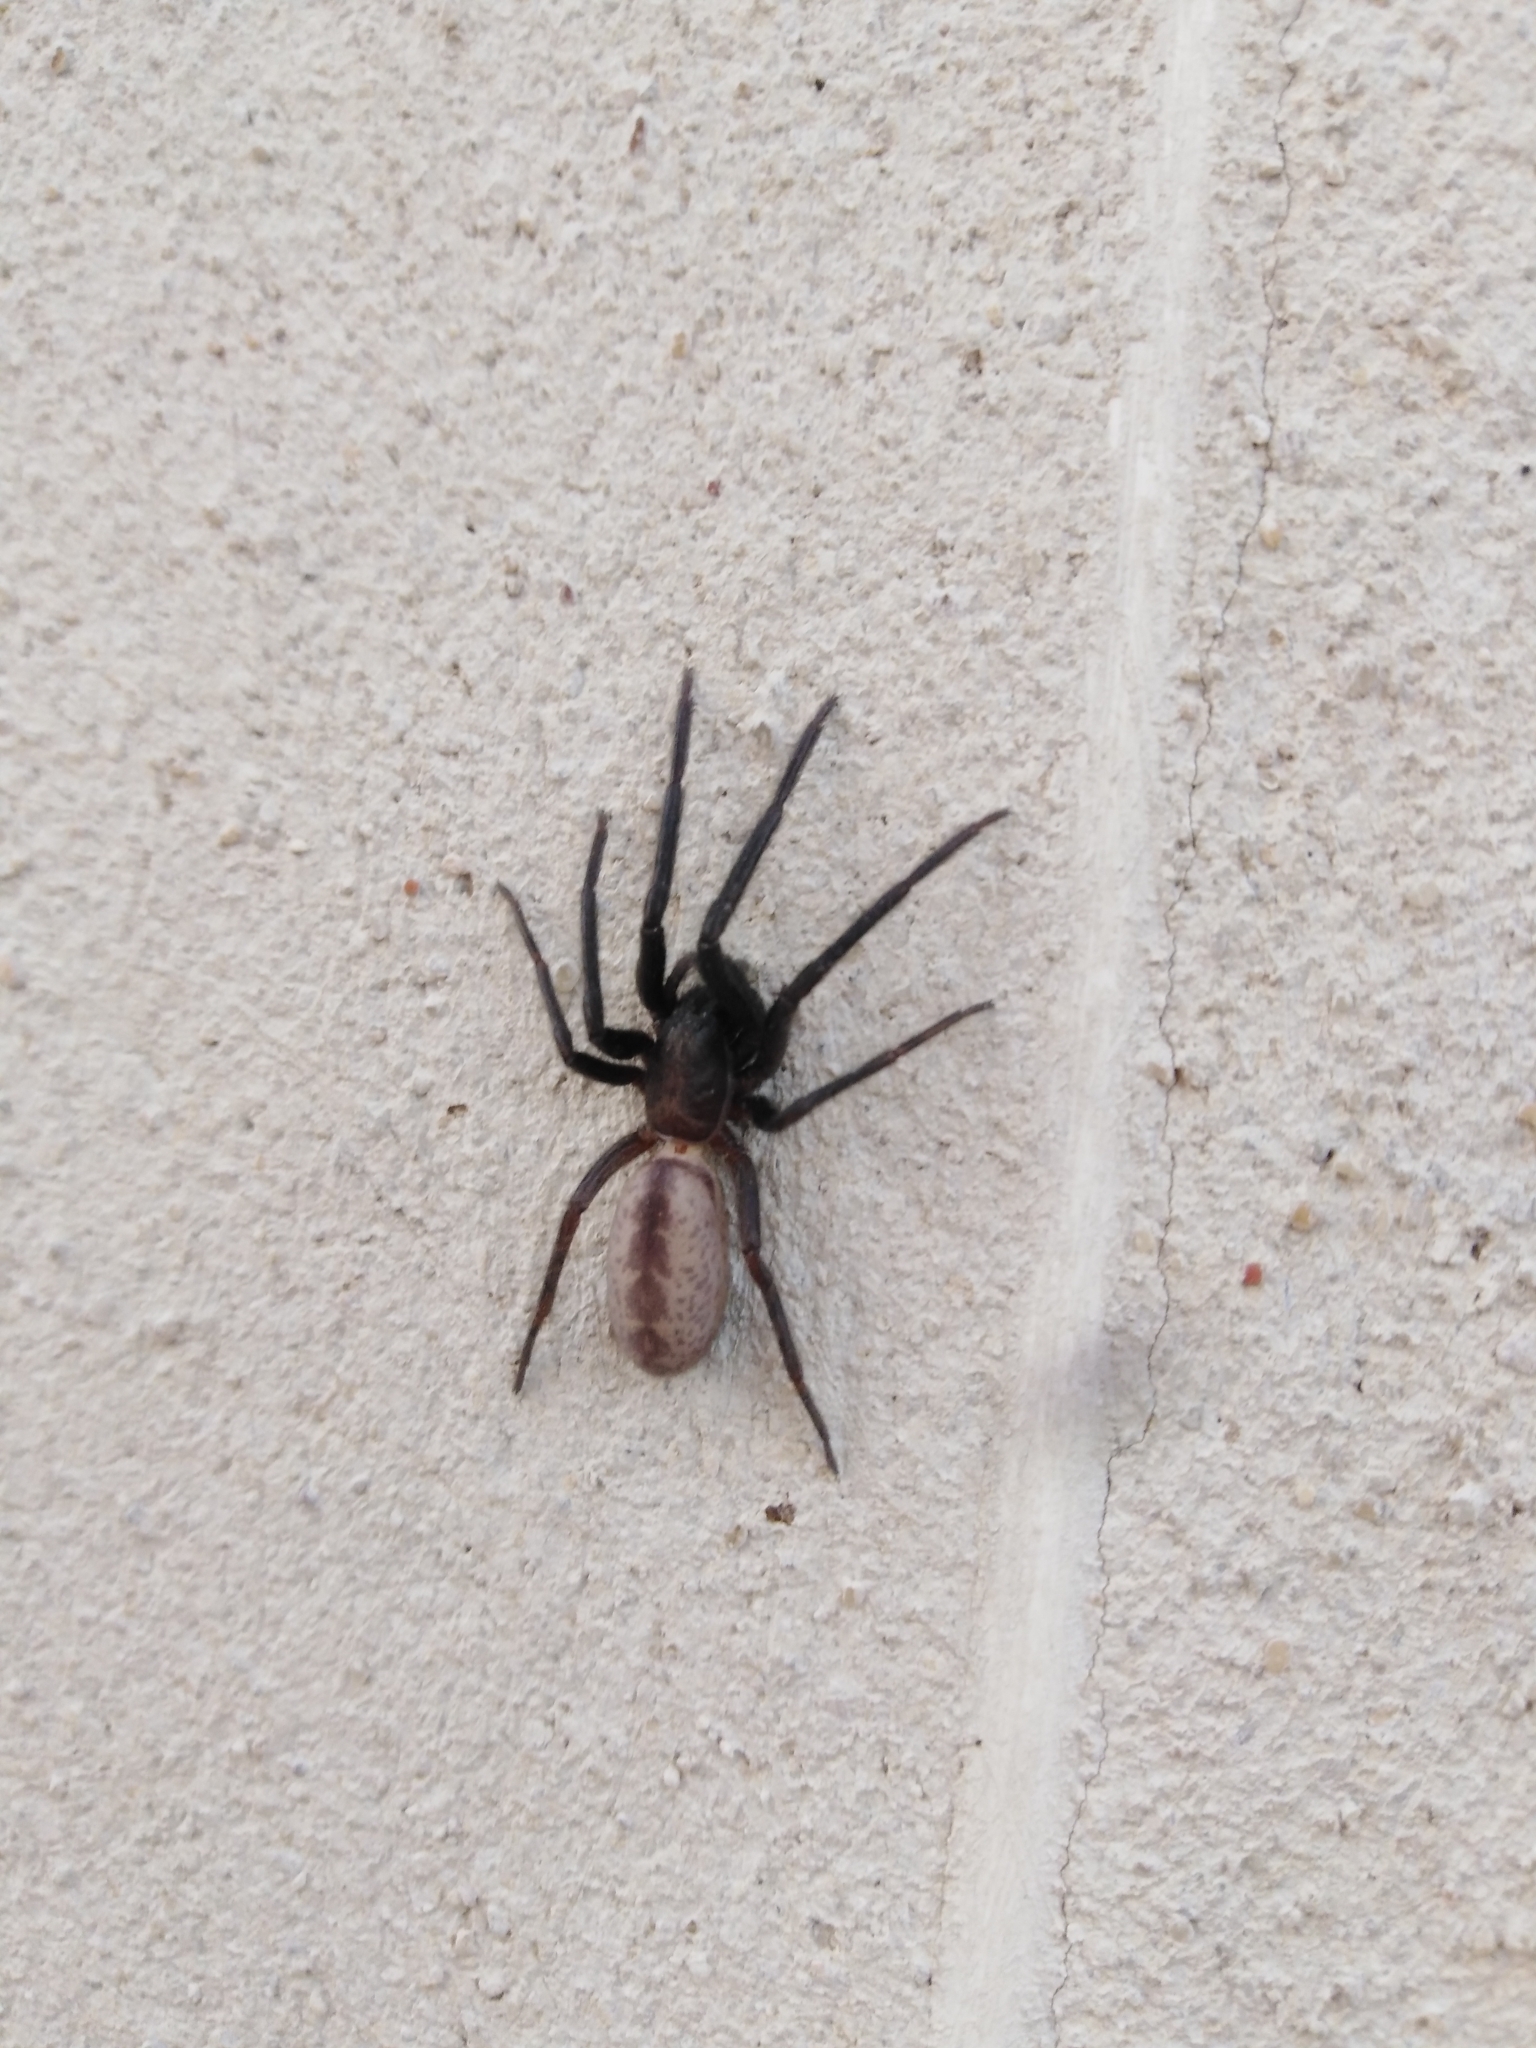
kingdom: Animalia
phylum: Arthropoda
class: Arachnida
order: Araneae
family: Segestriidae
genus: Segestria
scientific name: Segestria florentina
